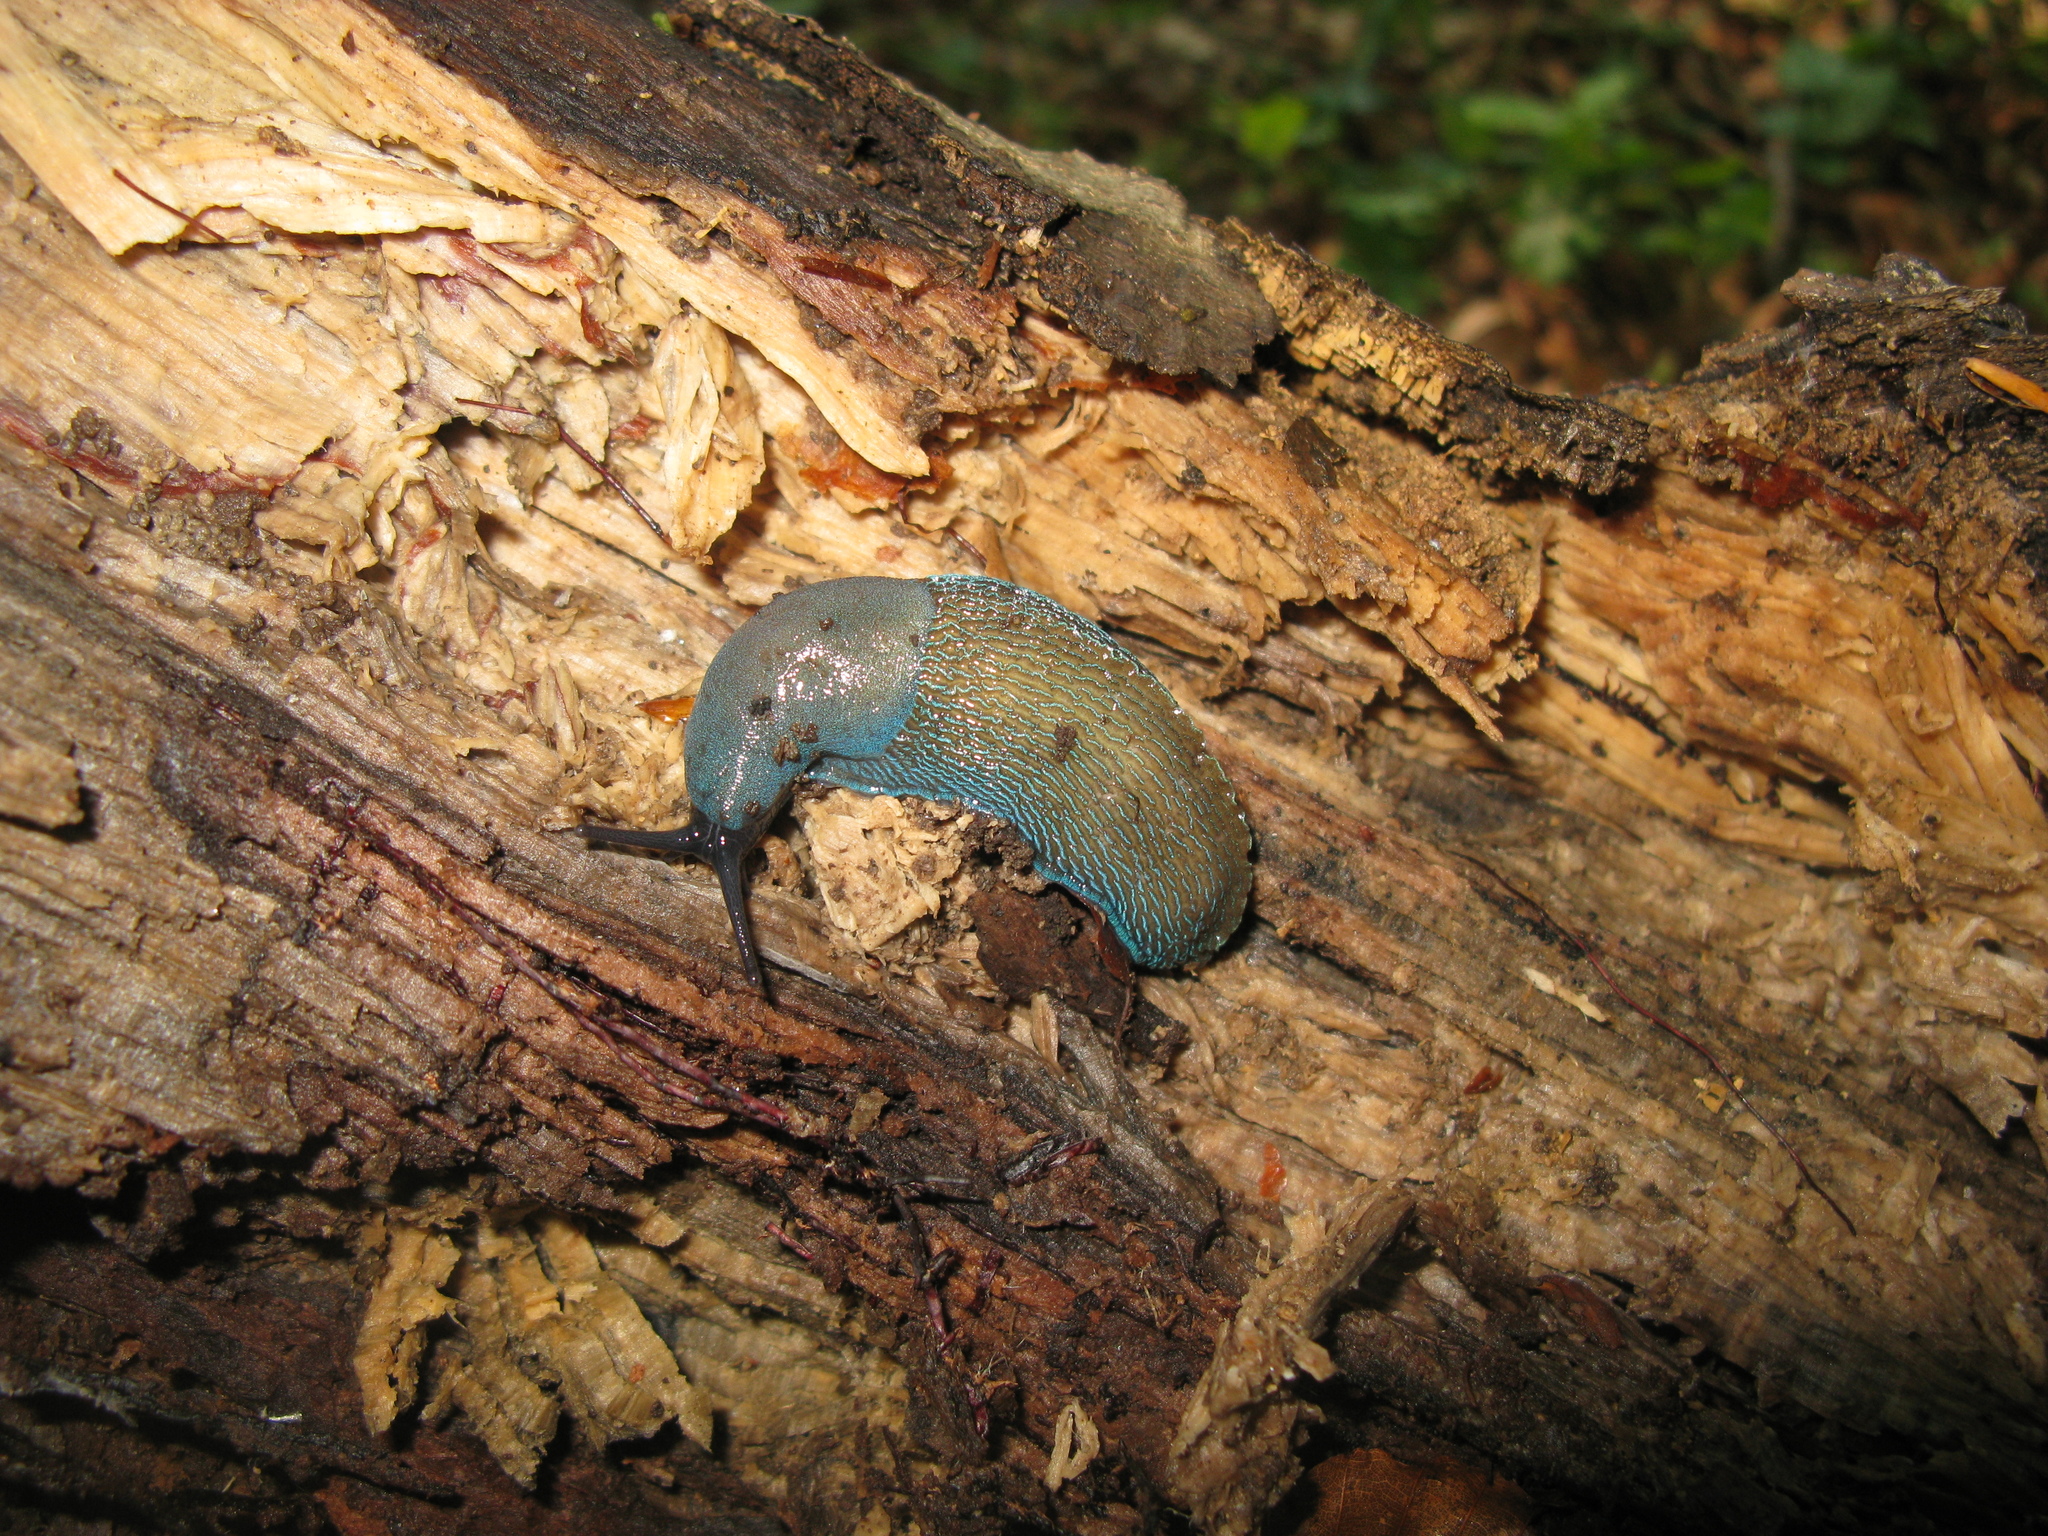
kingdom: Animalia
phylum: Mollusca
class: Gastropoda
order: Stylommatophora
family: Limacidae
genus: Bielzia
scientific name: Bielzia coerulans
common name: Carpathian blue slug
